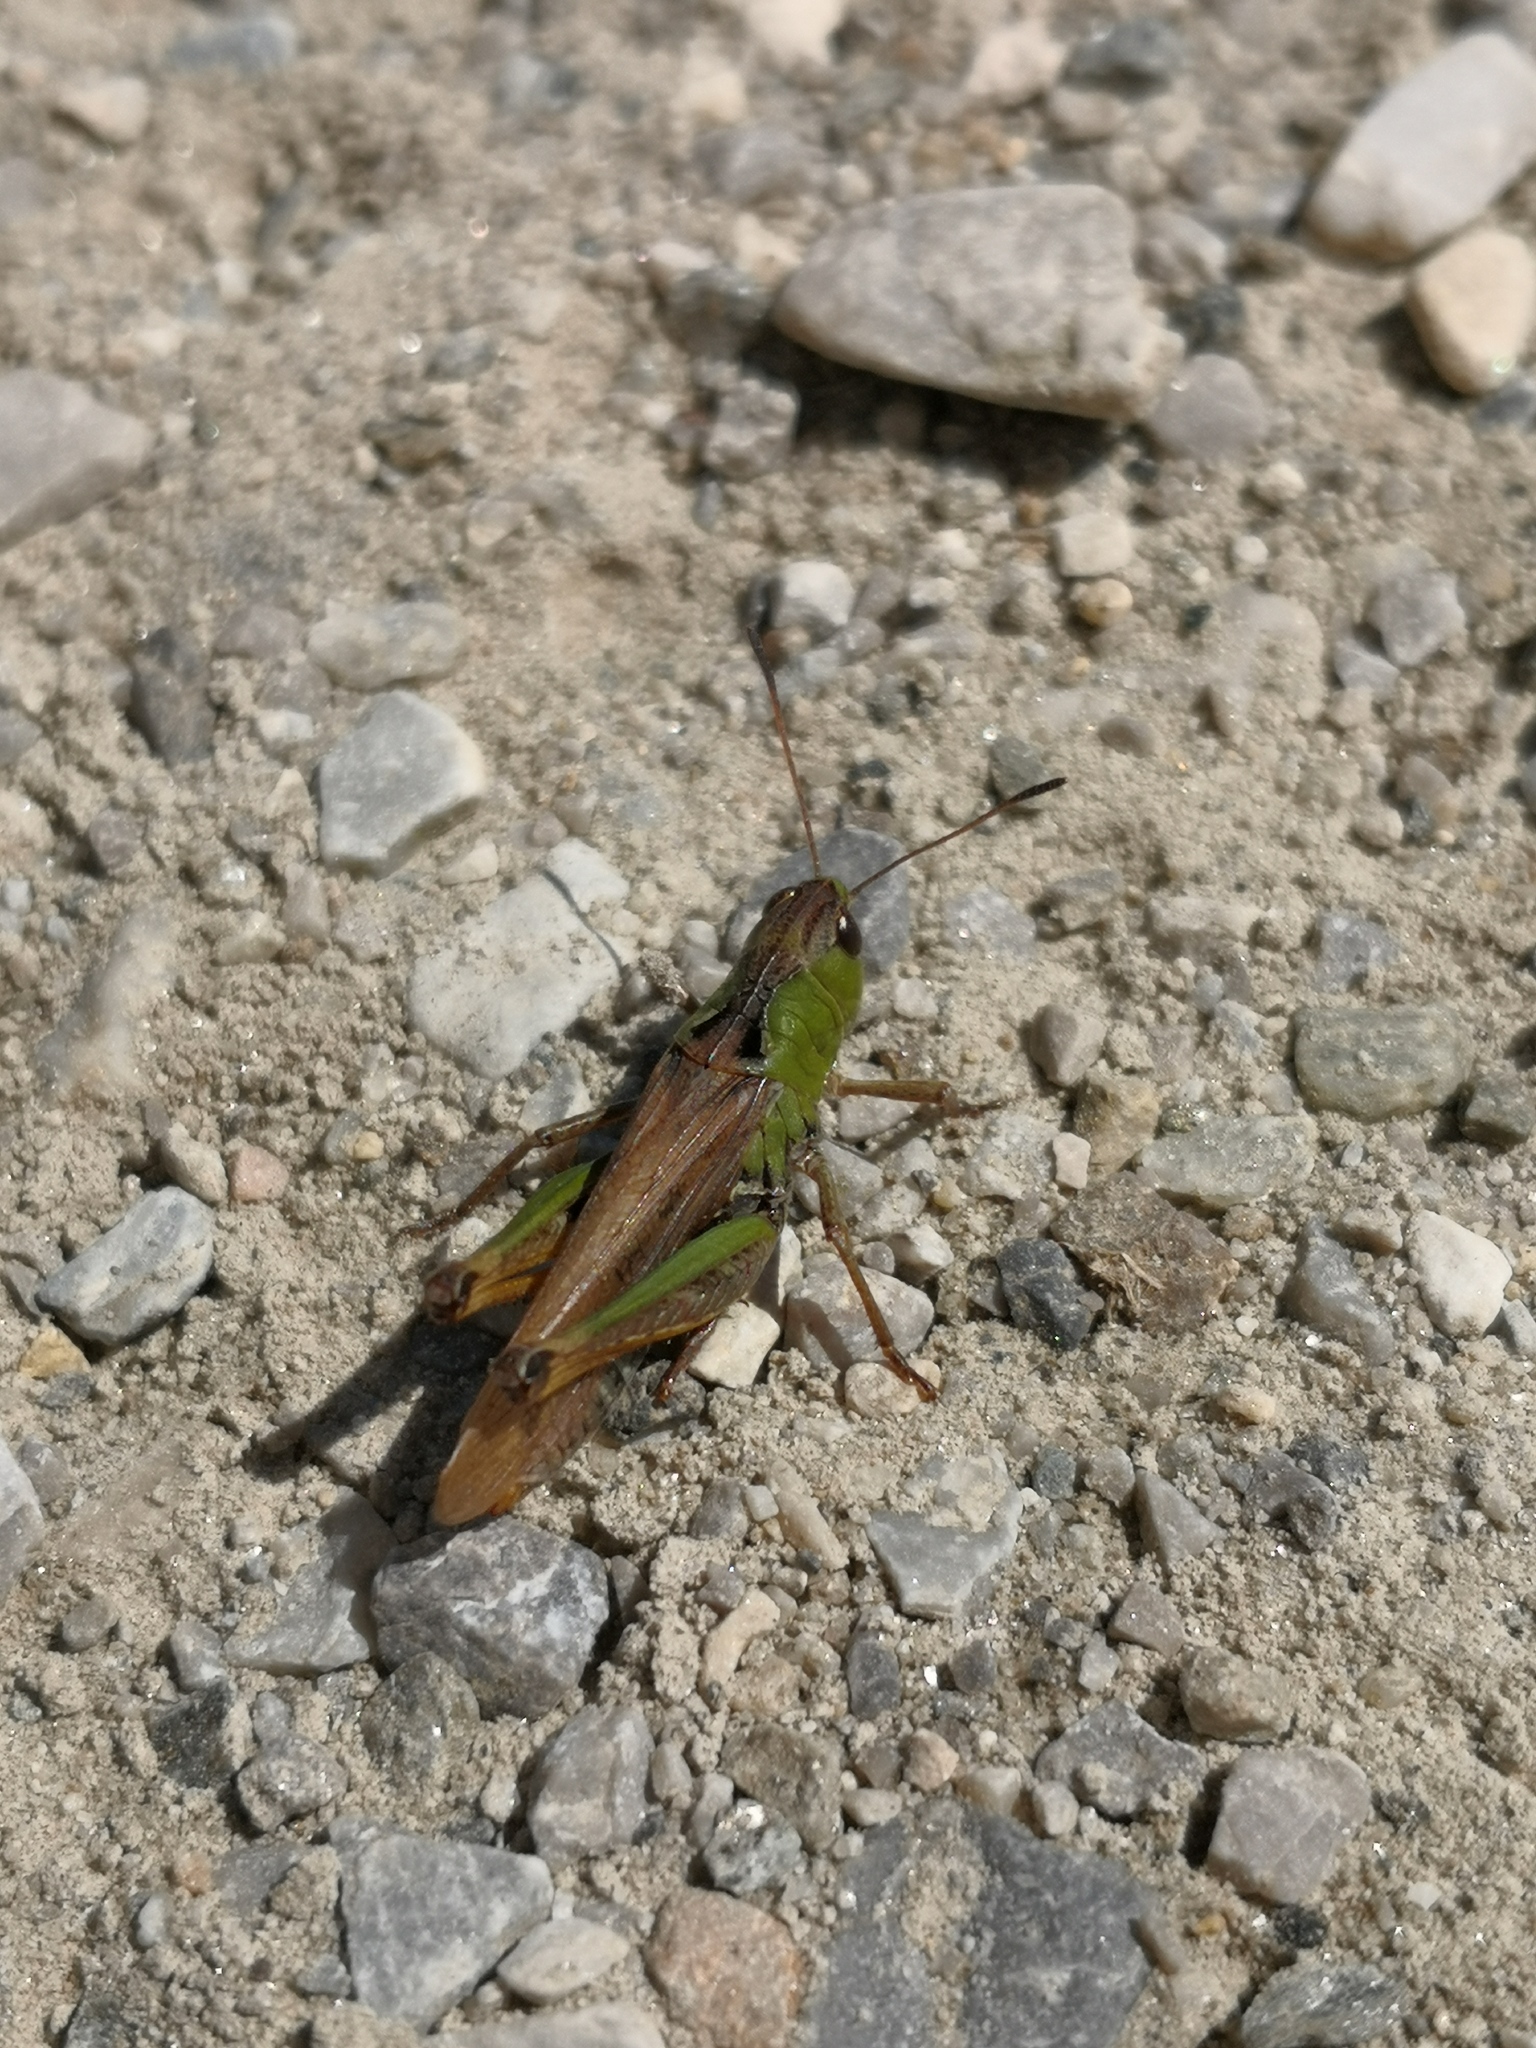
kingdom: Animalia
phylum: Arthropoda
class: Insecta
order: Orthoptera
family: Acrididae
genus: Gomphocerus
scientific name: Gomphocerus sibiricus
